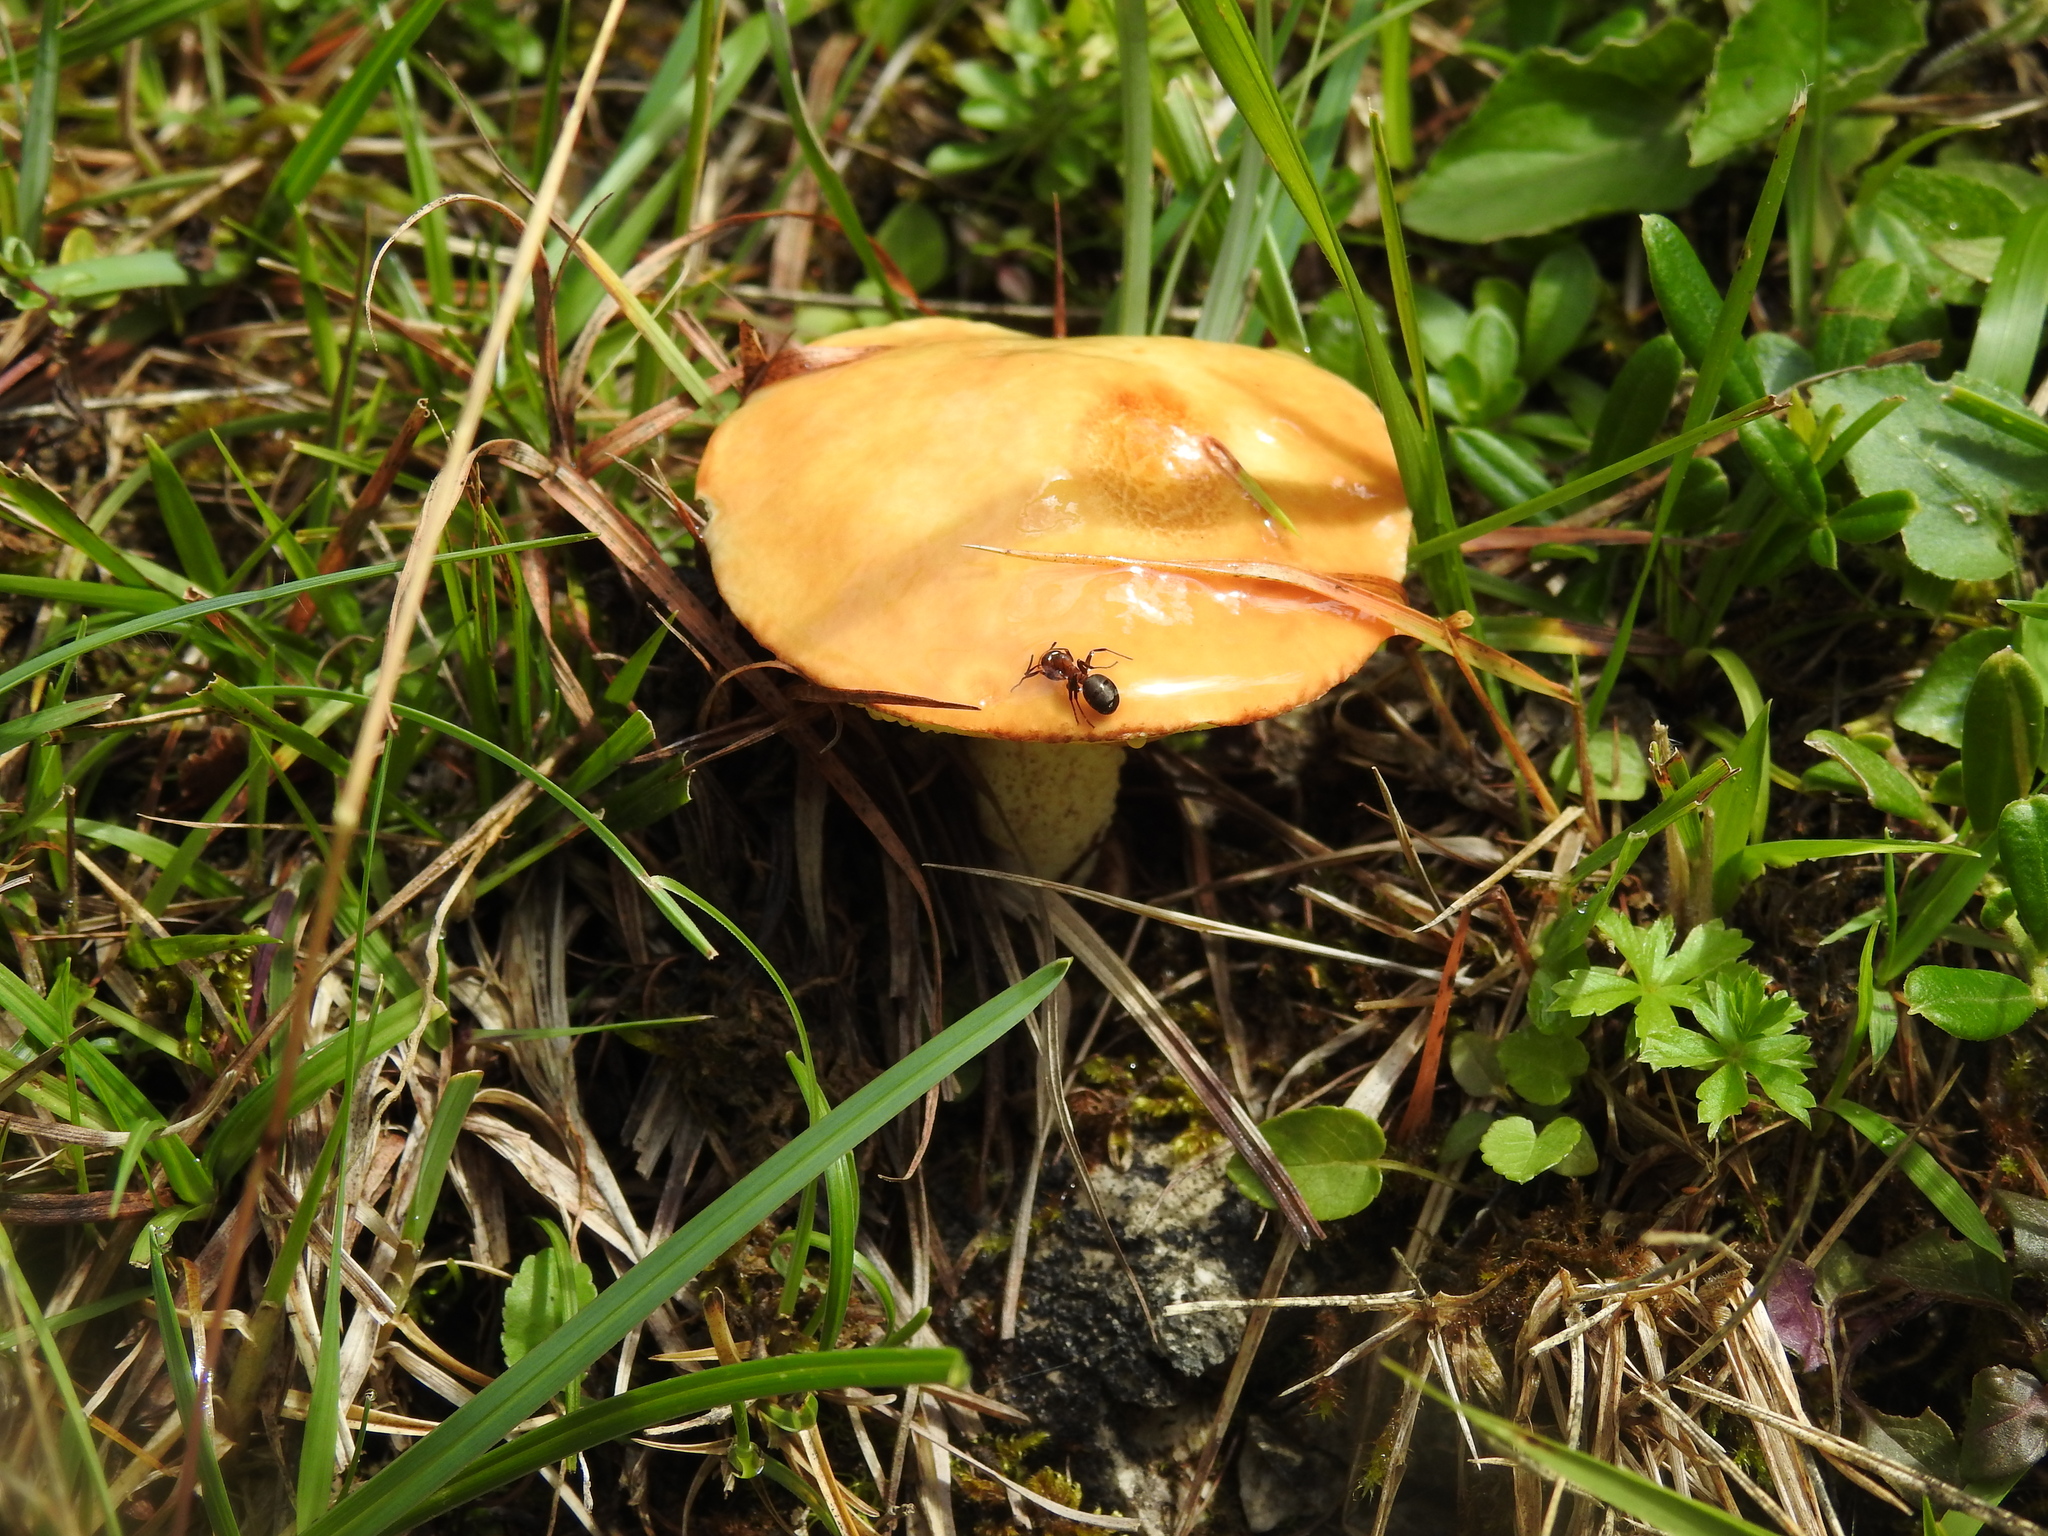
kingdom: Fungi
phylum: Basidiomycota
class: Agaricomycetes
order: Boletales
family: Suillaceae
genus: Suillus
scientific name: Suillus granulatus
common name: Weeping bolete
